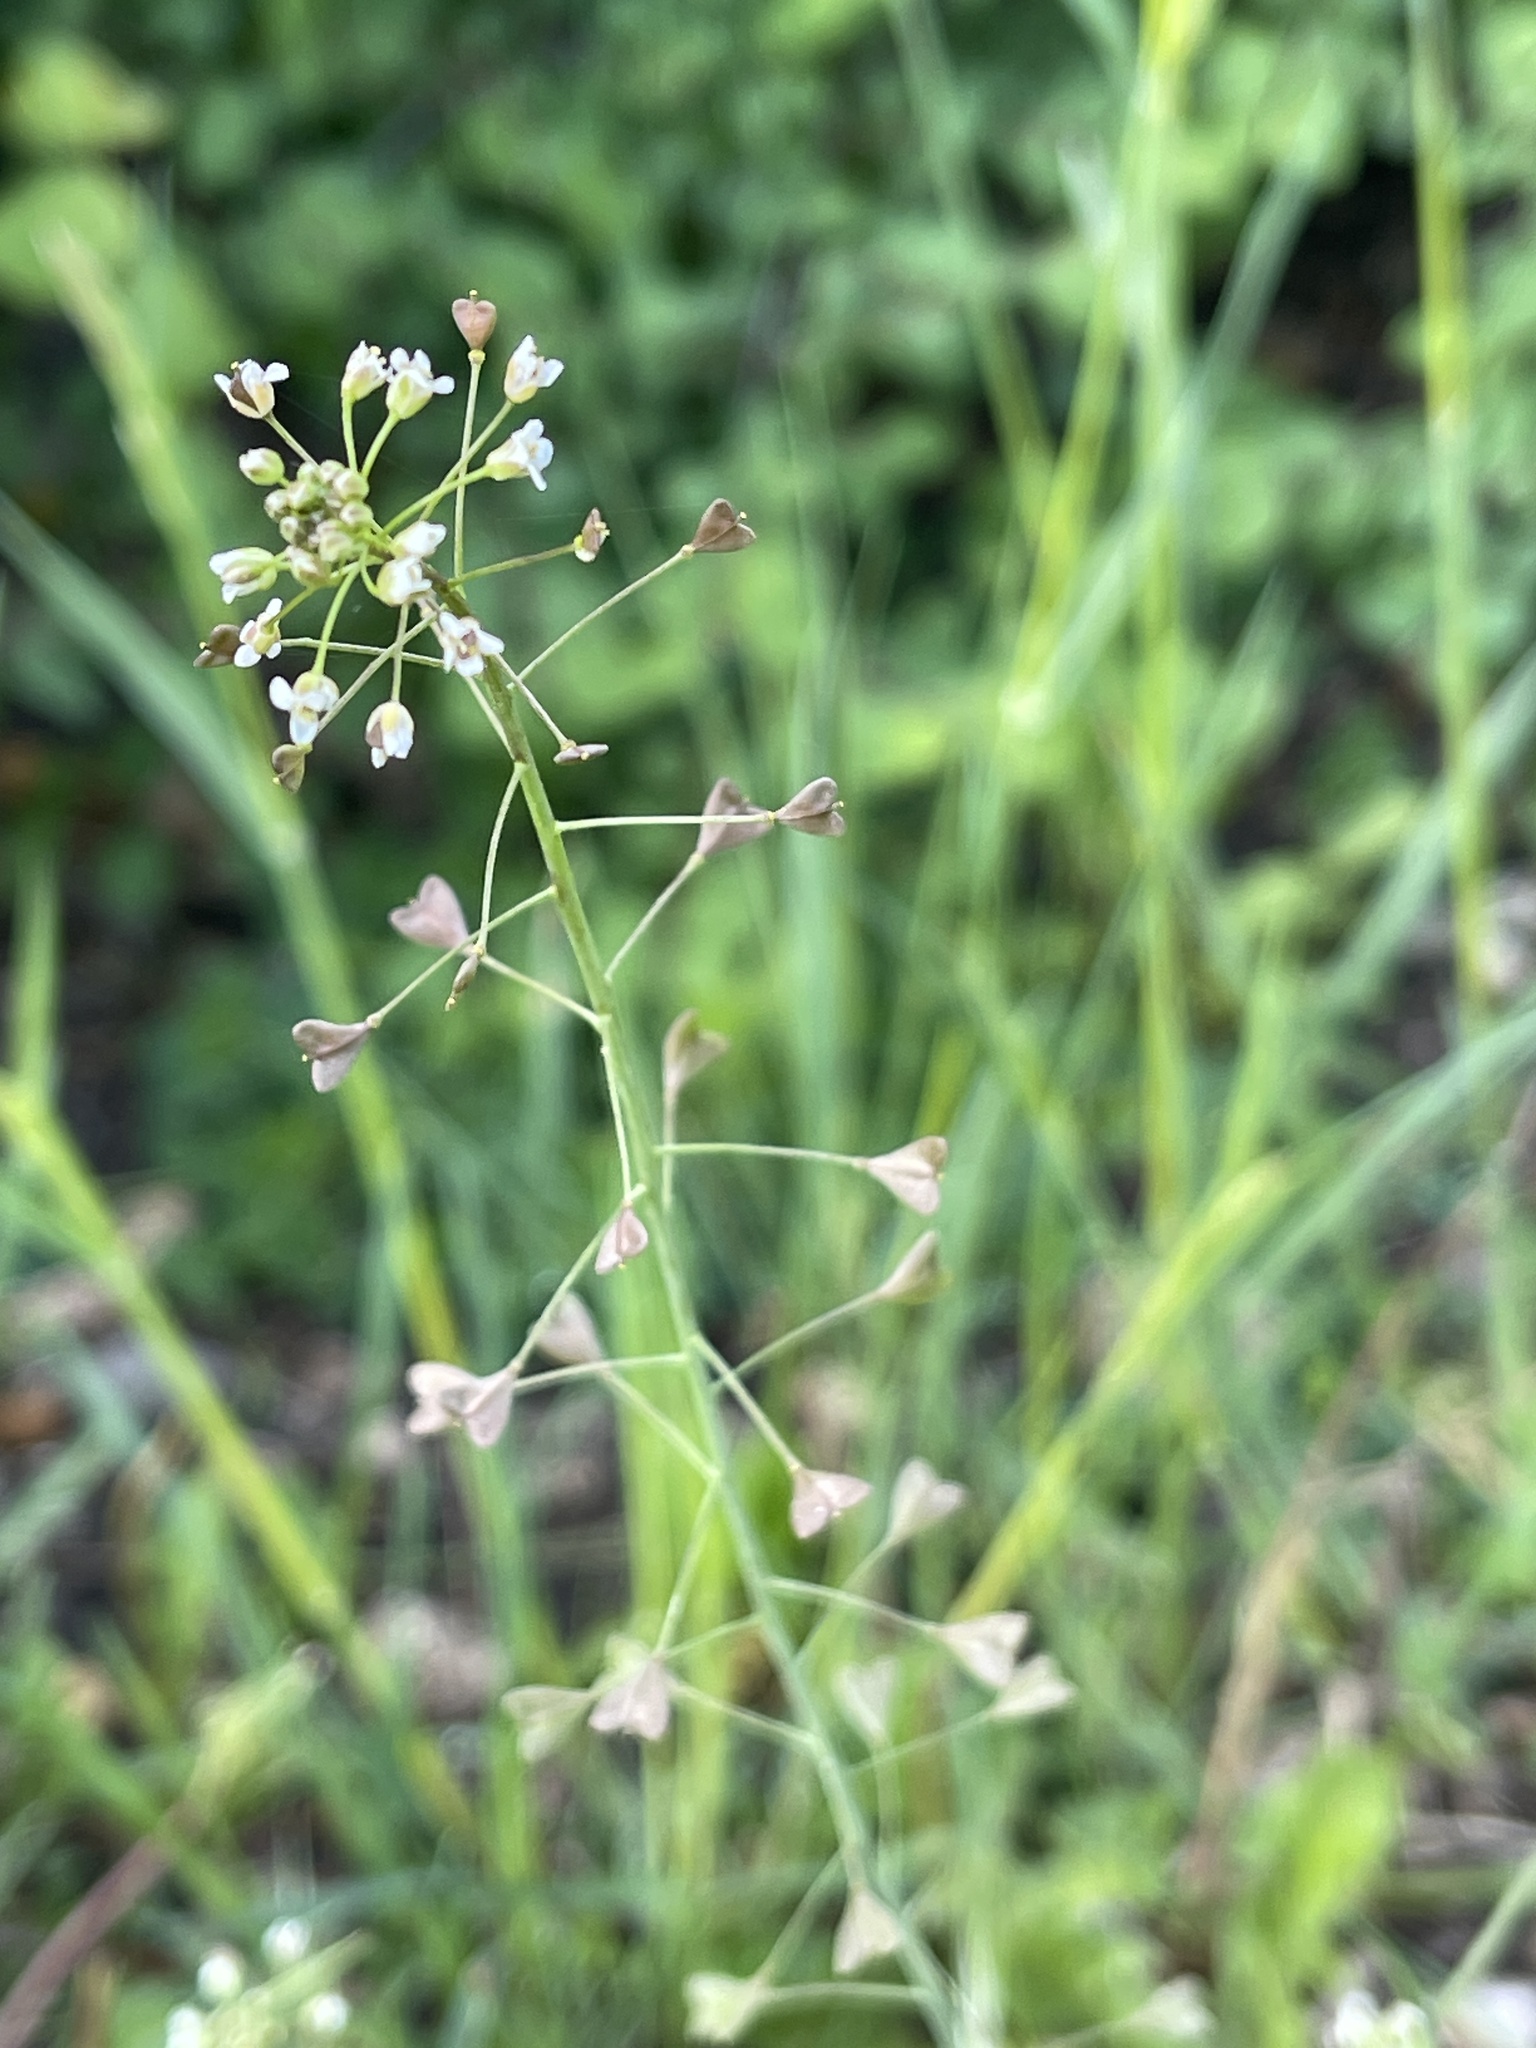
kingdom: Plantae
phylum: Tracheophyta
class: Magnoliopsida
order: Brassicales
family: Brassicaceae
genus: Capsella
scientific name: Capsella bursa-pastoris
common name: Shepherd's purse
